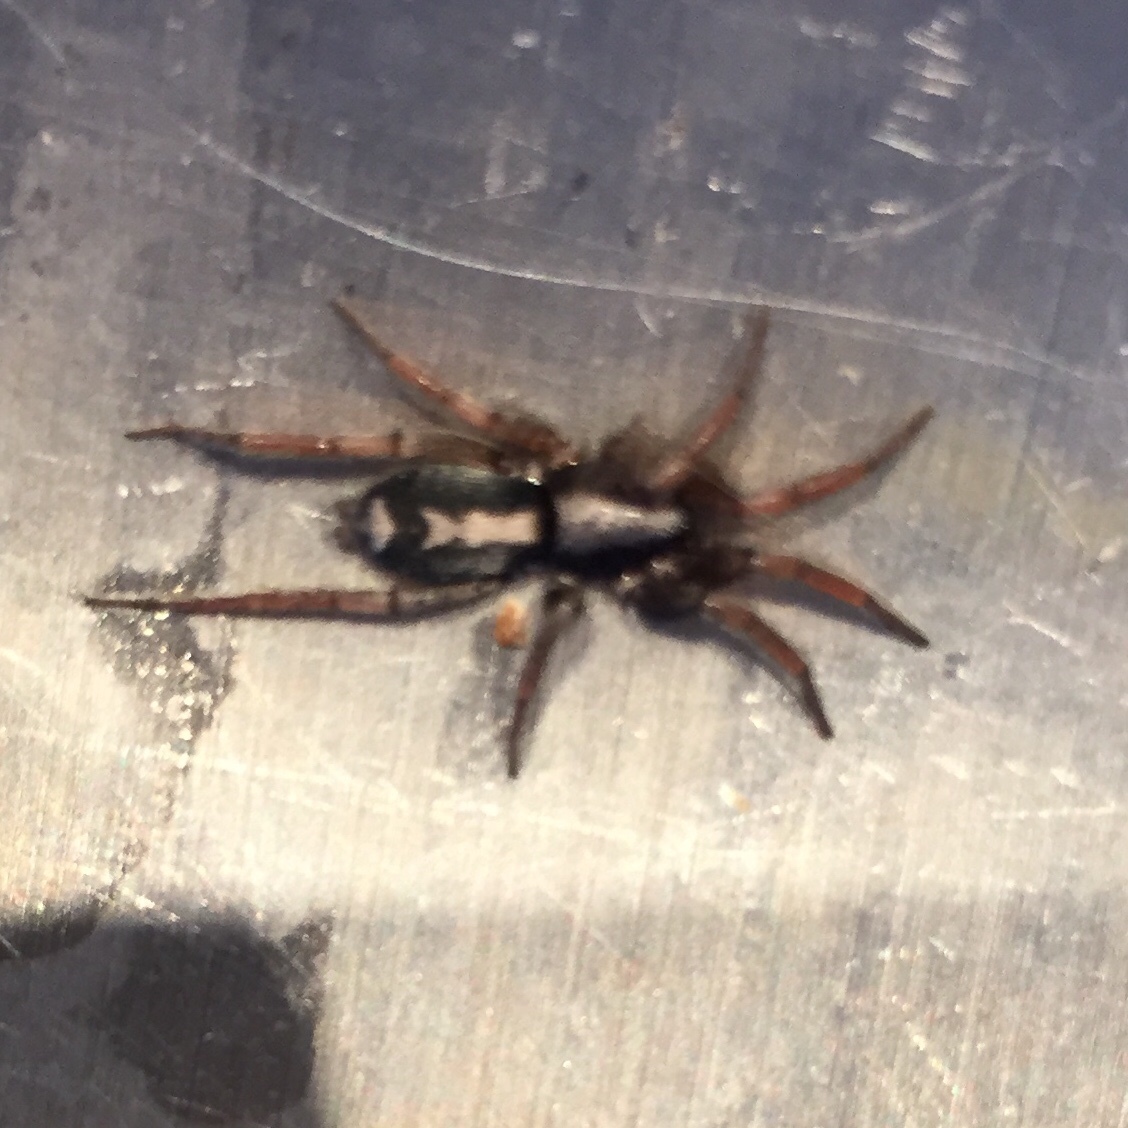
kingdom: Animalia
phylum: Arthropoda
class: Arachnida
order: Araneae
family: Gnaphosidae
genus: Herpyllus
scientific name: Herpyllus ecclesiasticus
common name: Eastern parson spider
